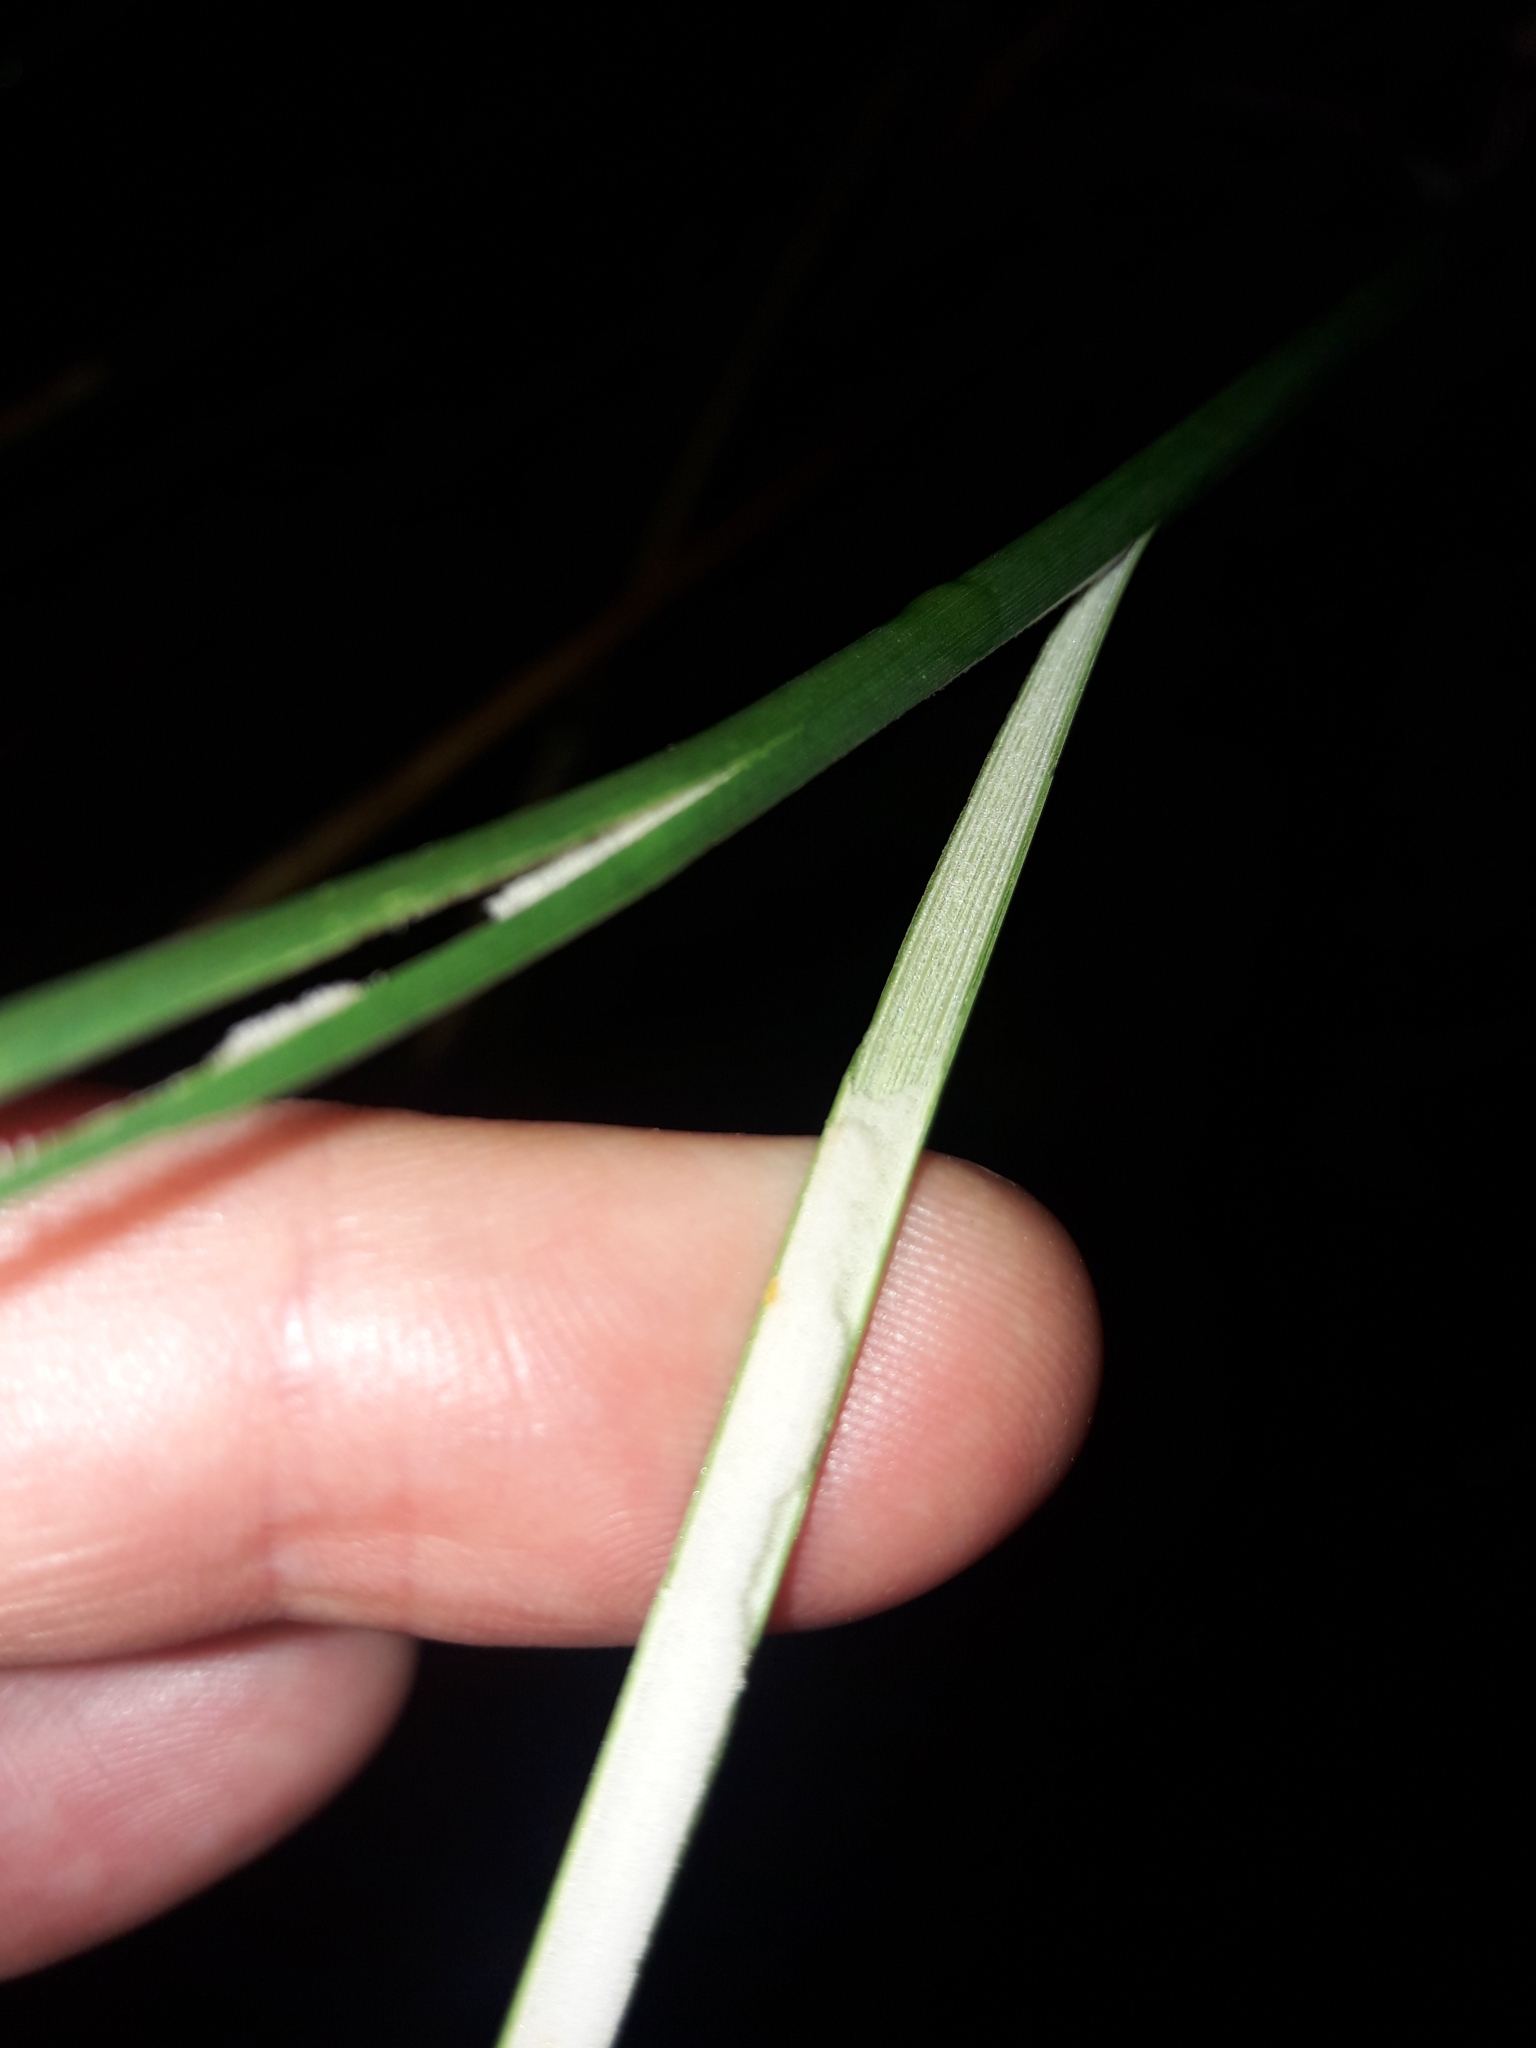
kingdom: Plantae
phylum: Tracheophyta
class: Liliopsida
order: Poales
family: Juncaceae
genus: Juncus
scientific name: Juncus pallidus
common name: Great soft-rush
